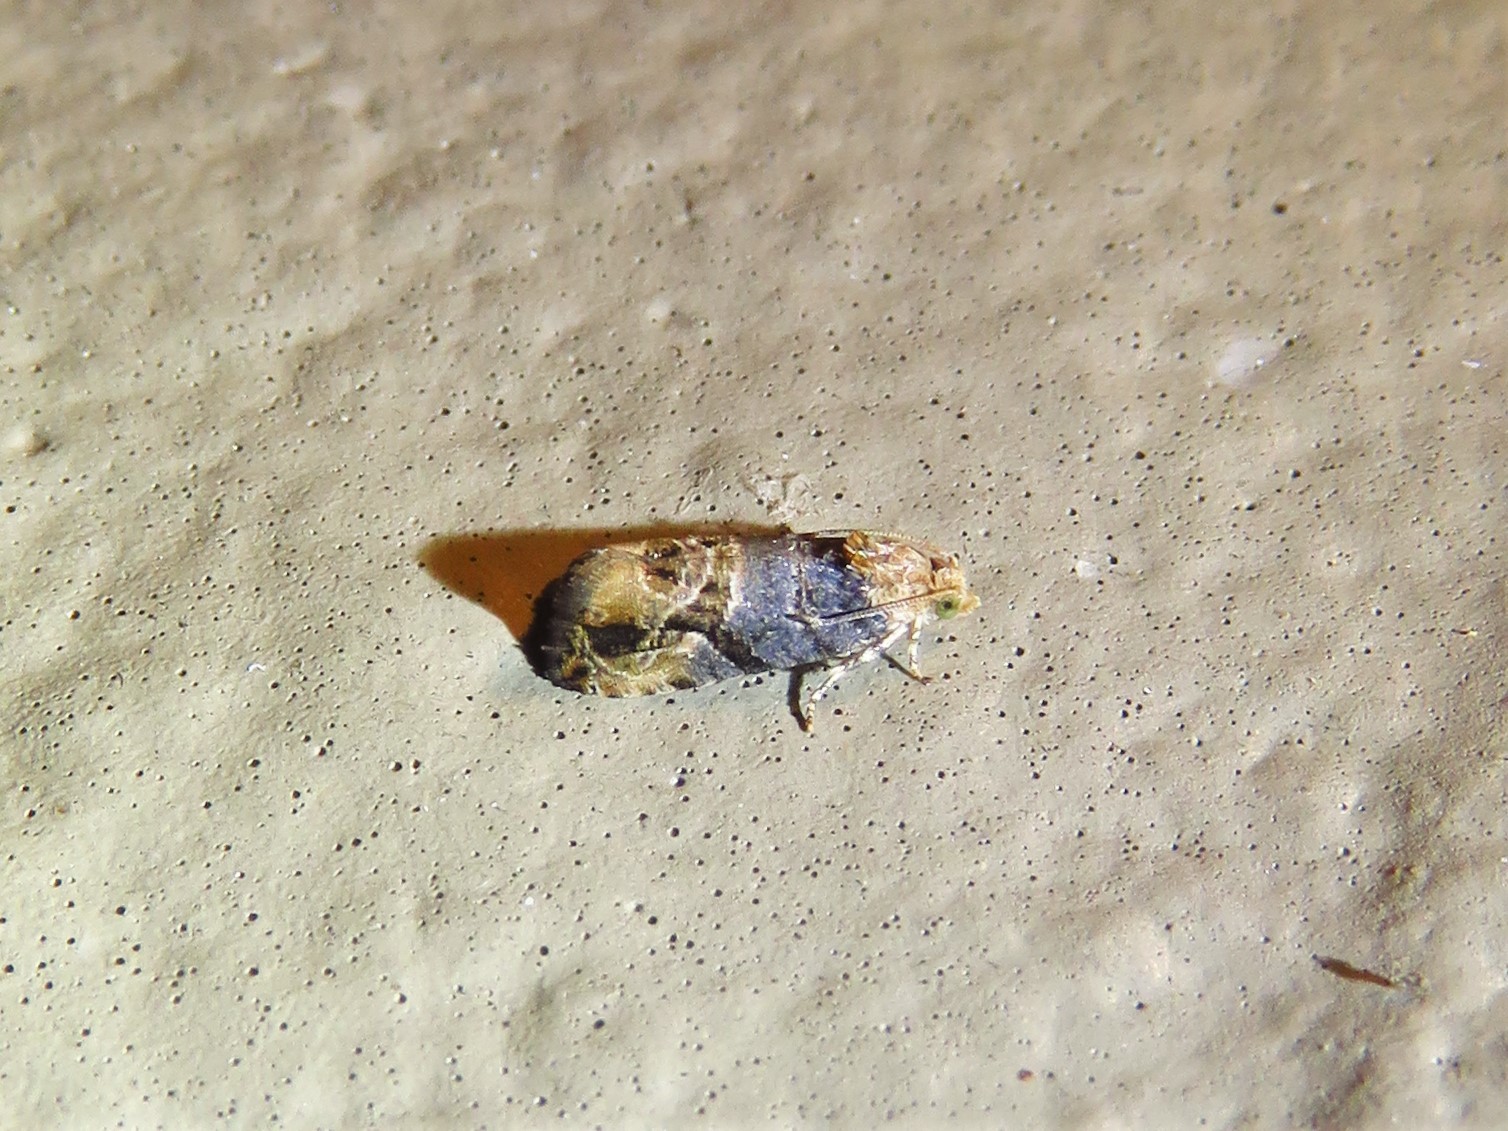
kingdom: Animalia
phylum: Arthropoda
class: Insecta
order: Lepidoptera
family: Tortricidae
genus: Paralobesia
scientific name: Paralobesia viteana
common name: Grape berry moth
